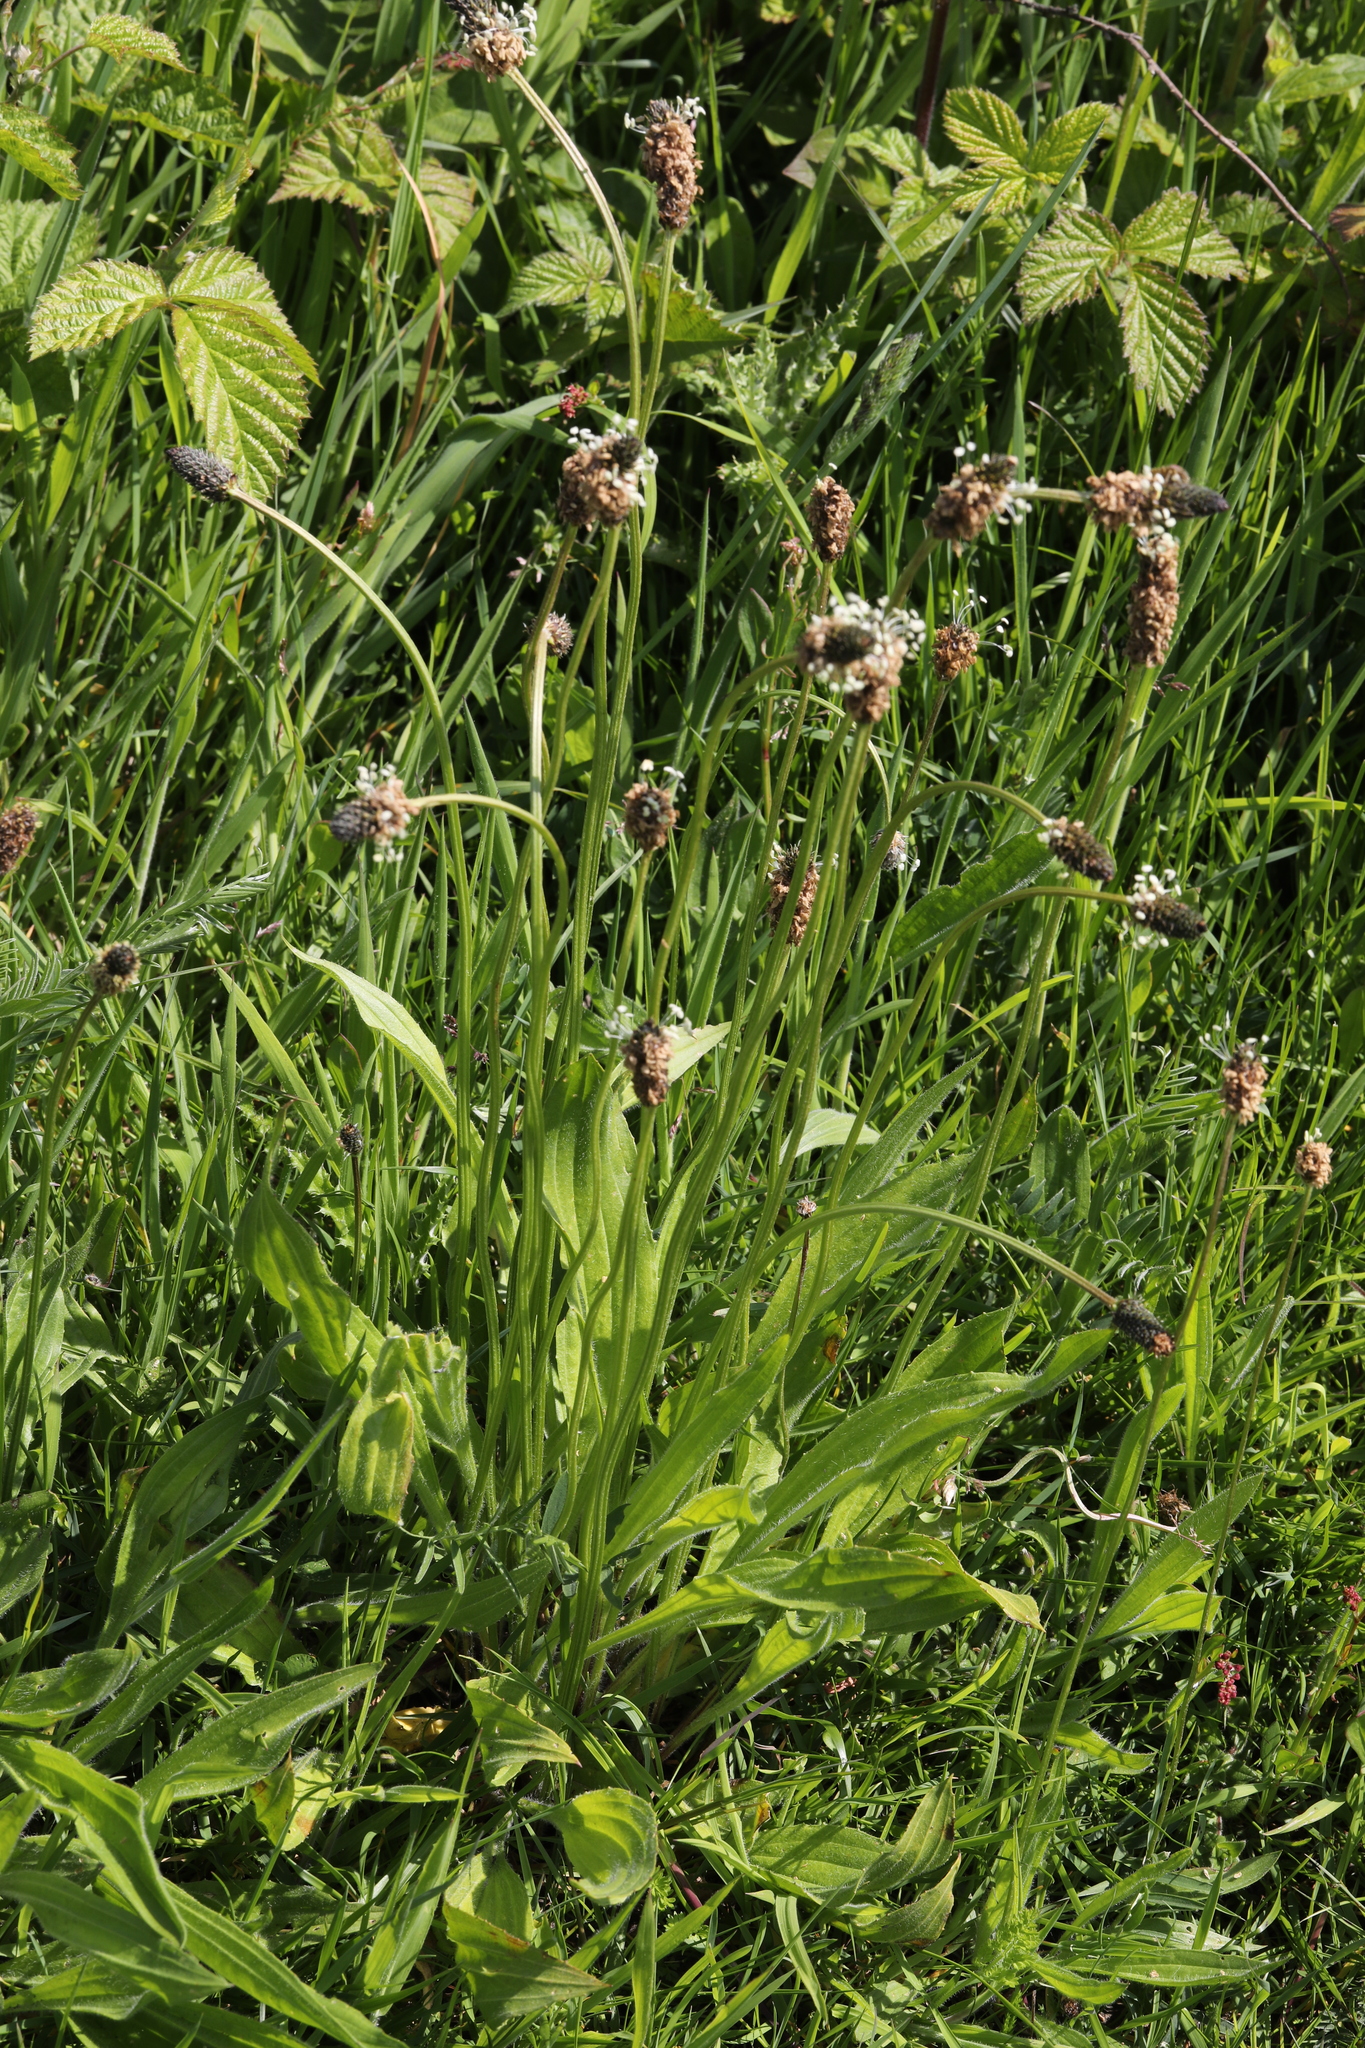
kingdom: Plantae
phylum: Tracheophyta
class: Magnoliopsida
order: Lamiales
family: Plantaginaceae
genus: Plantago
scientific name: Plantago lanceolata
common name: Ribwort plantain
